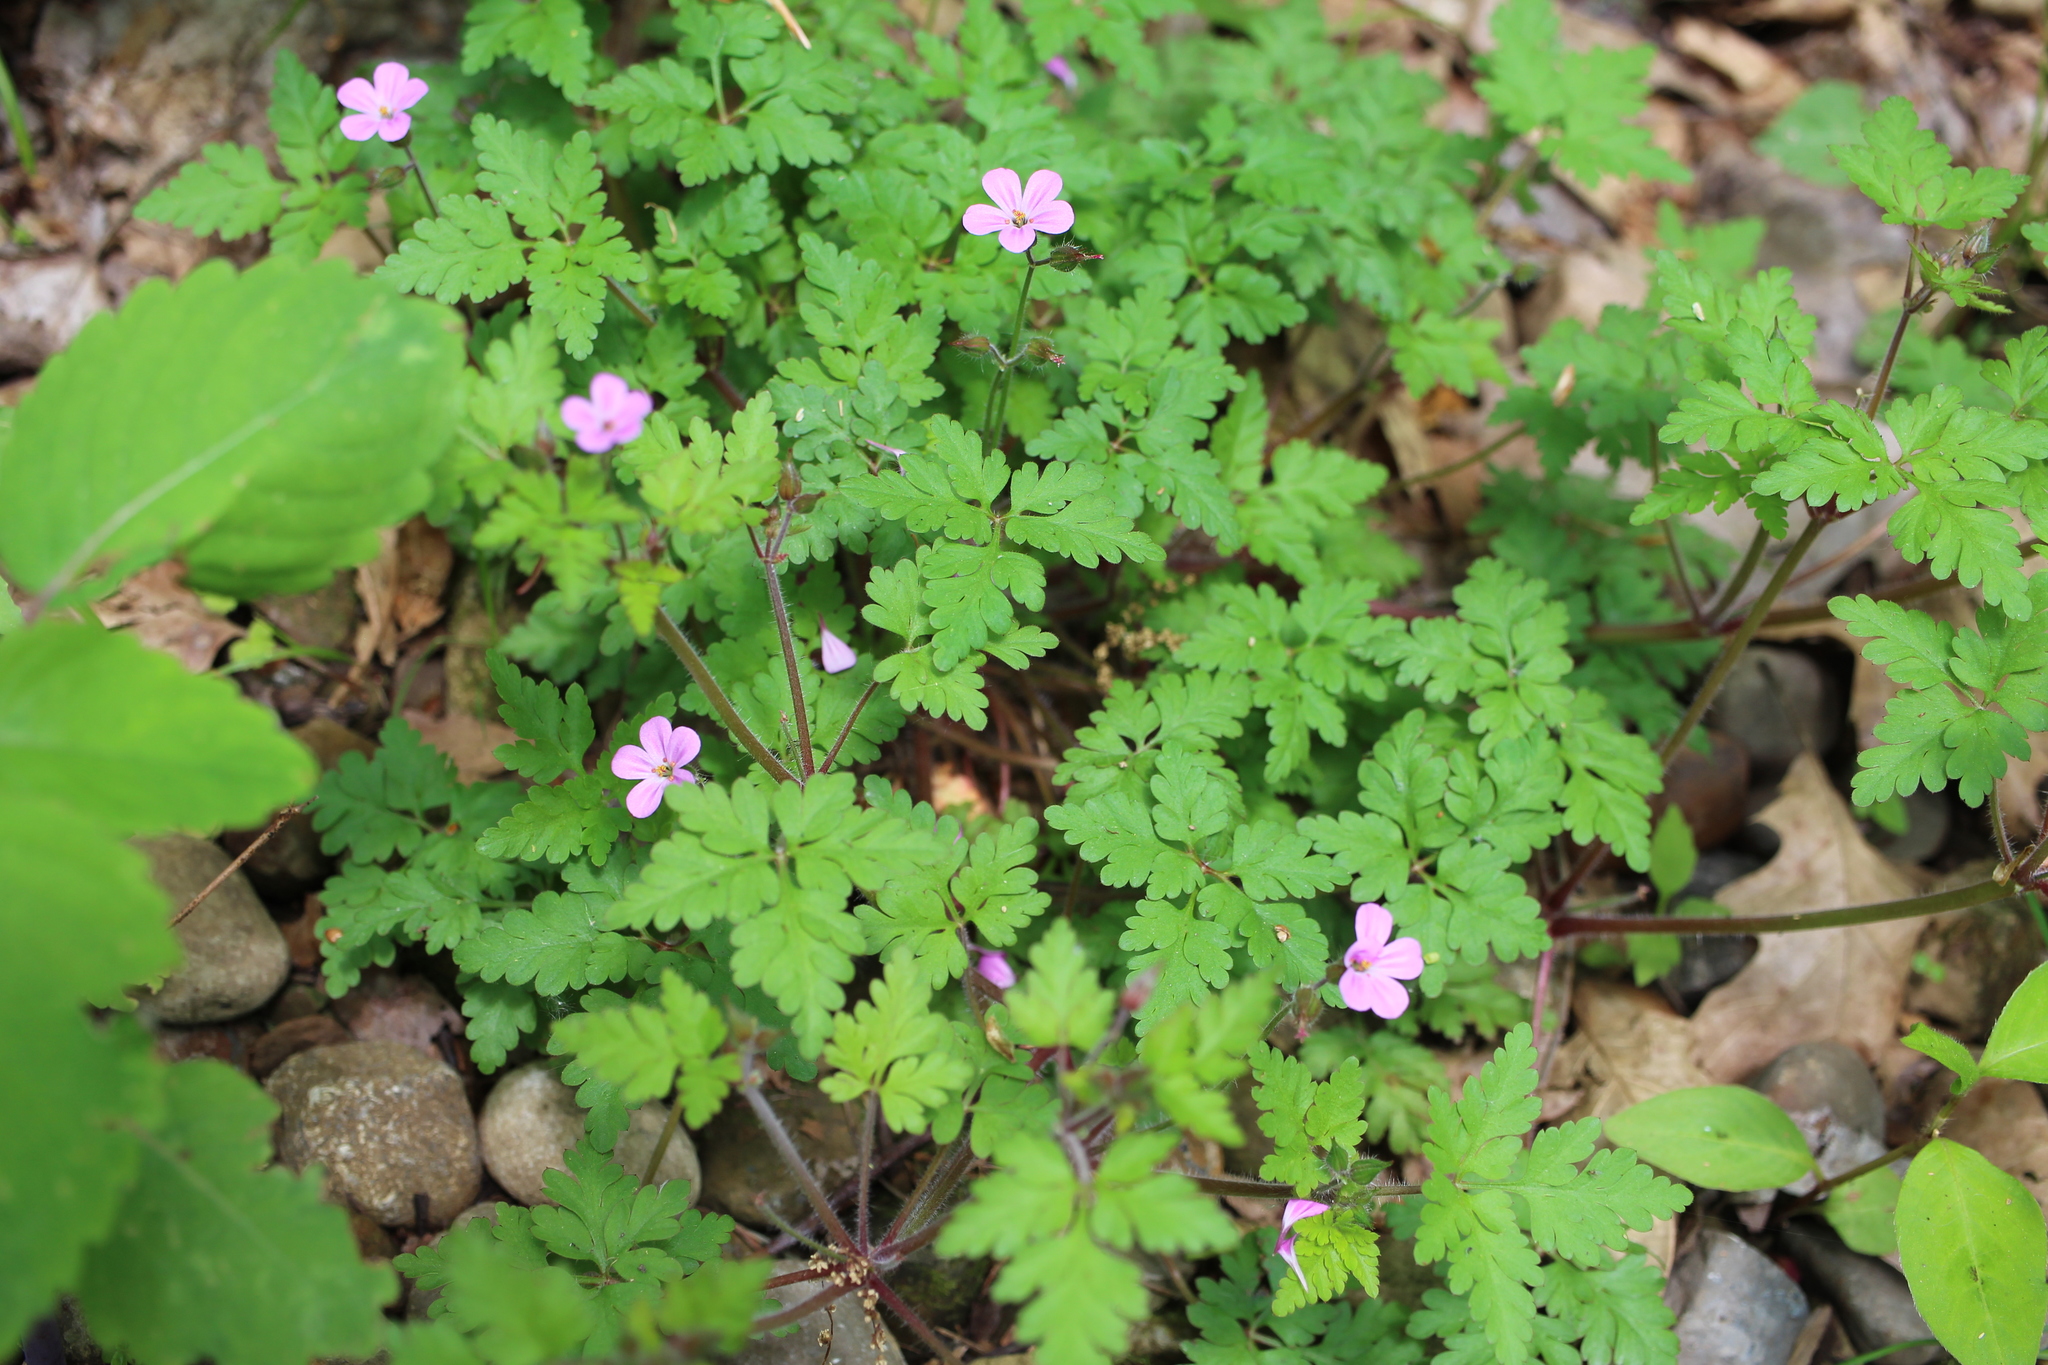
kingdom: Plantae
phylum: Tracheophyta
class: Magnoliopsida
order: Geraniales
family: Geraniaceae
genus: Geranium
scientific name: Geranium robertianum
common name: Herb-robert
